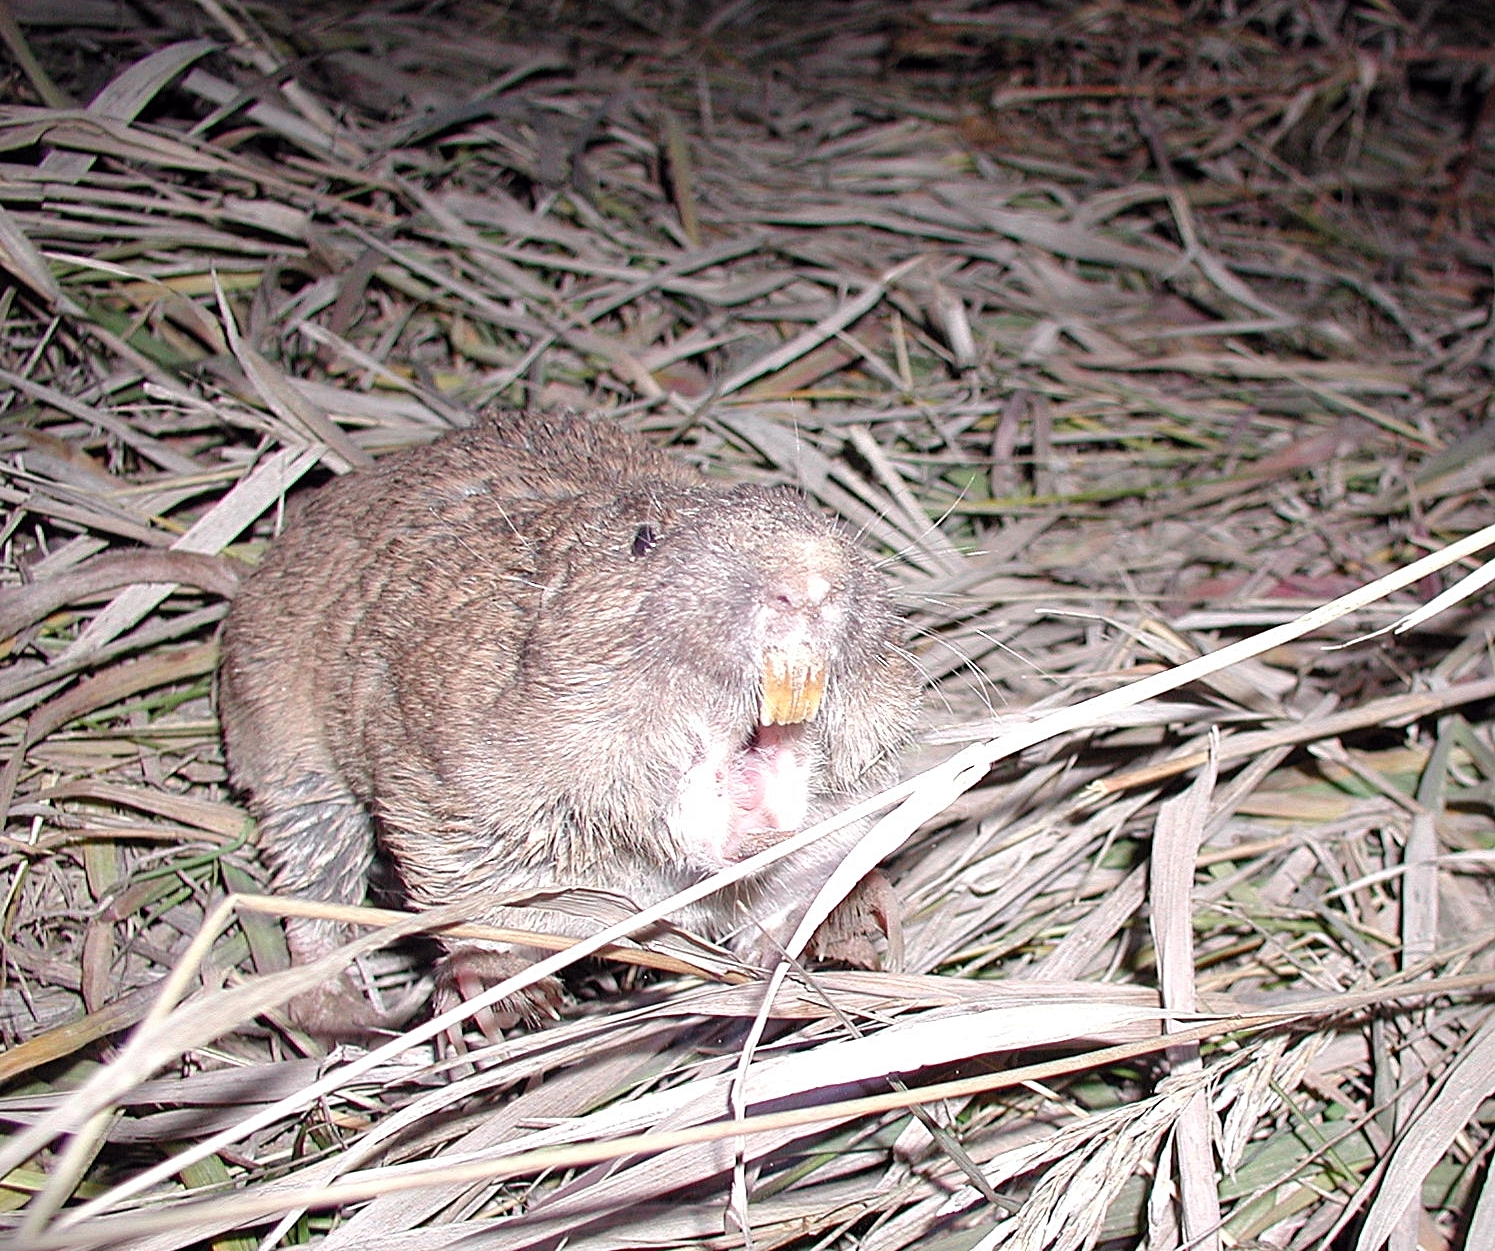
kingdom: Animalia
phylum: Chordata
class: Mammalia
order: Rodentia
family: Geomyidae
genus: Geomys
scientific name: Geomys bursarius
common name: Plains pocket gopher
